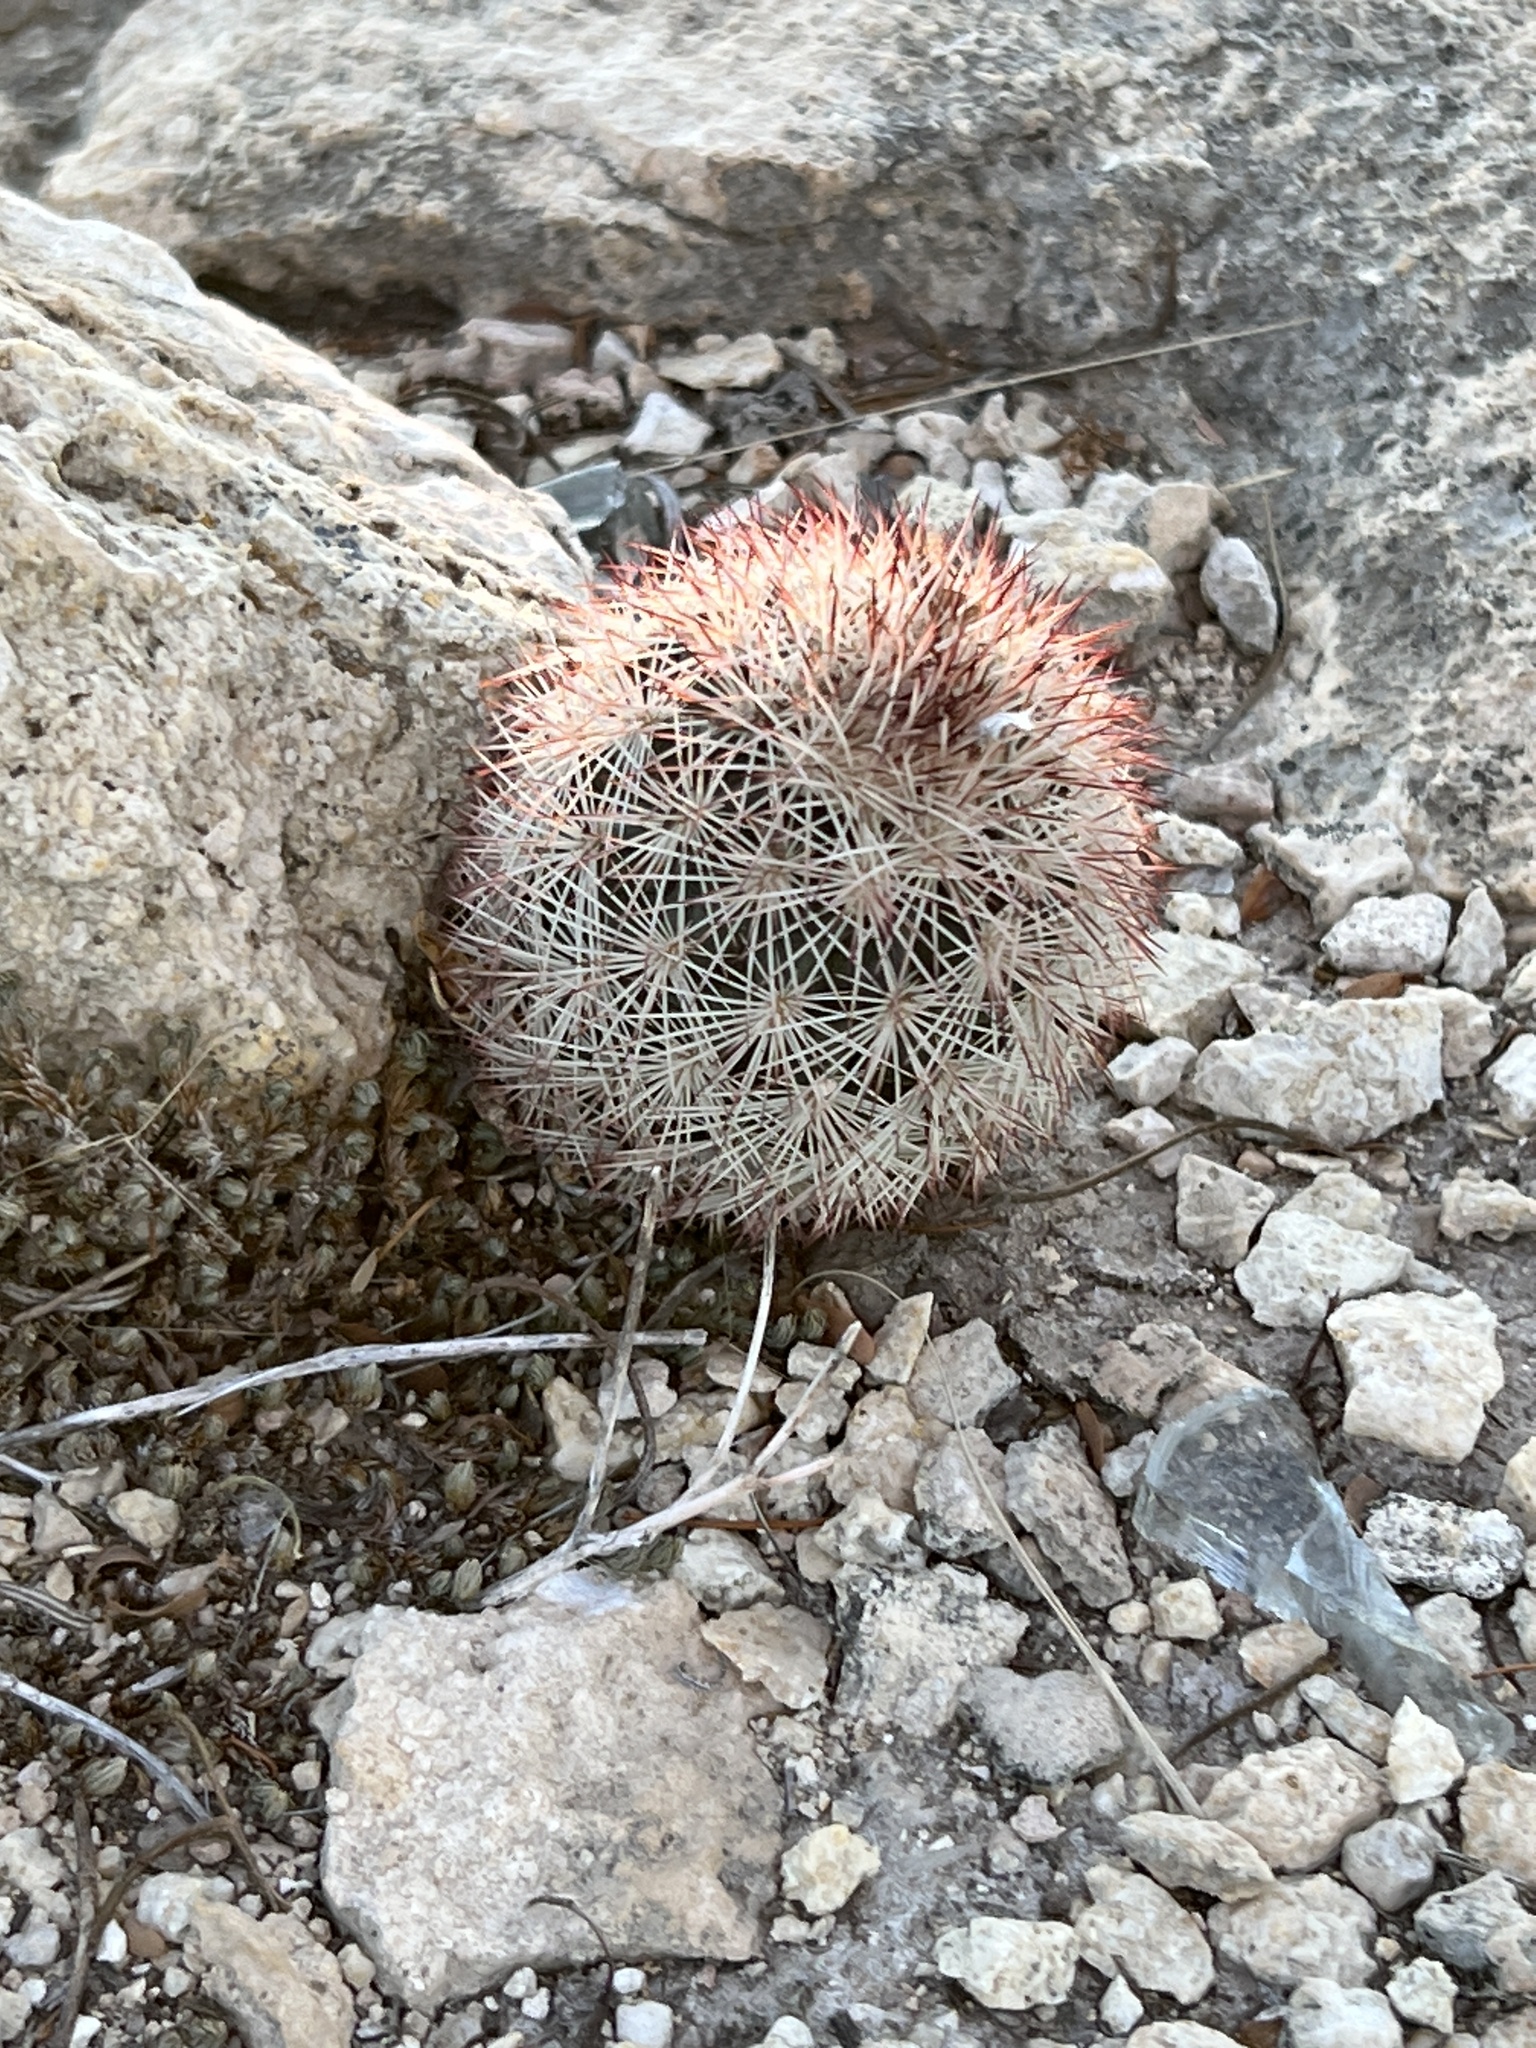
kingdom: Plantae
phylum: Tracheophyta
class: Magnoliopsida
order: Caryophyllales
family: Cactaceae
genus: Echinocereus
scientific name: Echinocereus dasyacanthus
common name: Spiny hedgehog cactus
